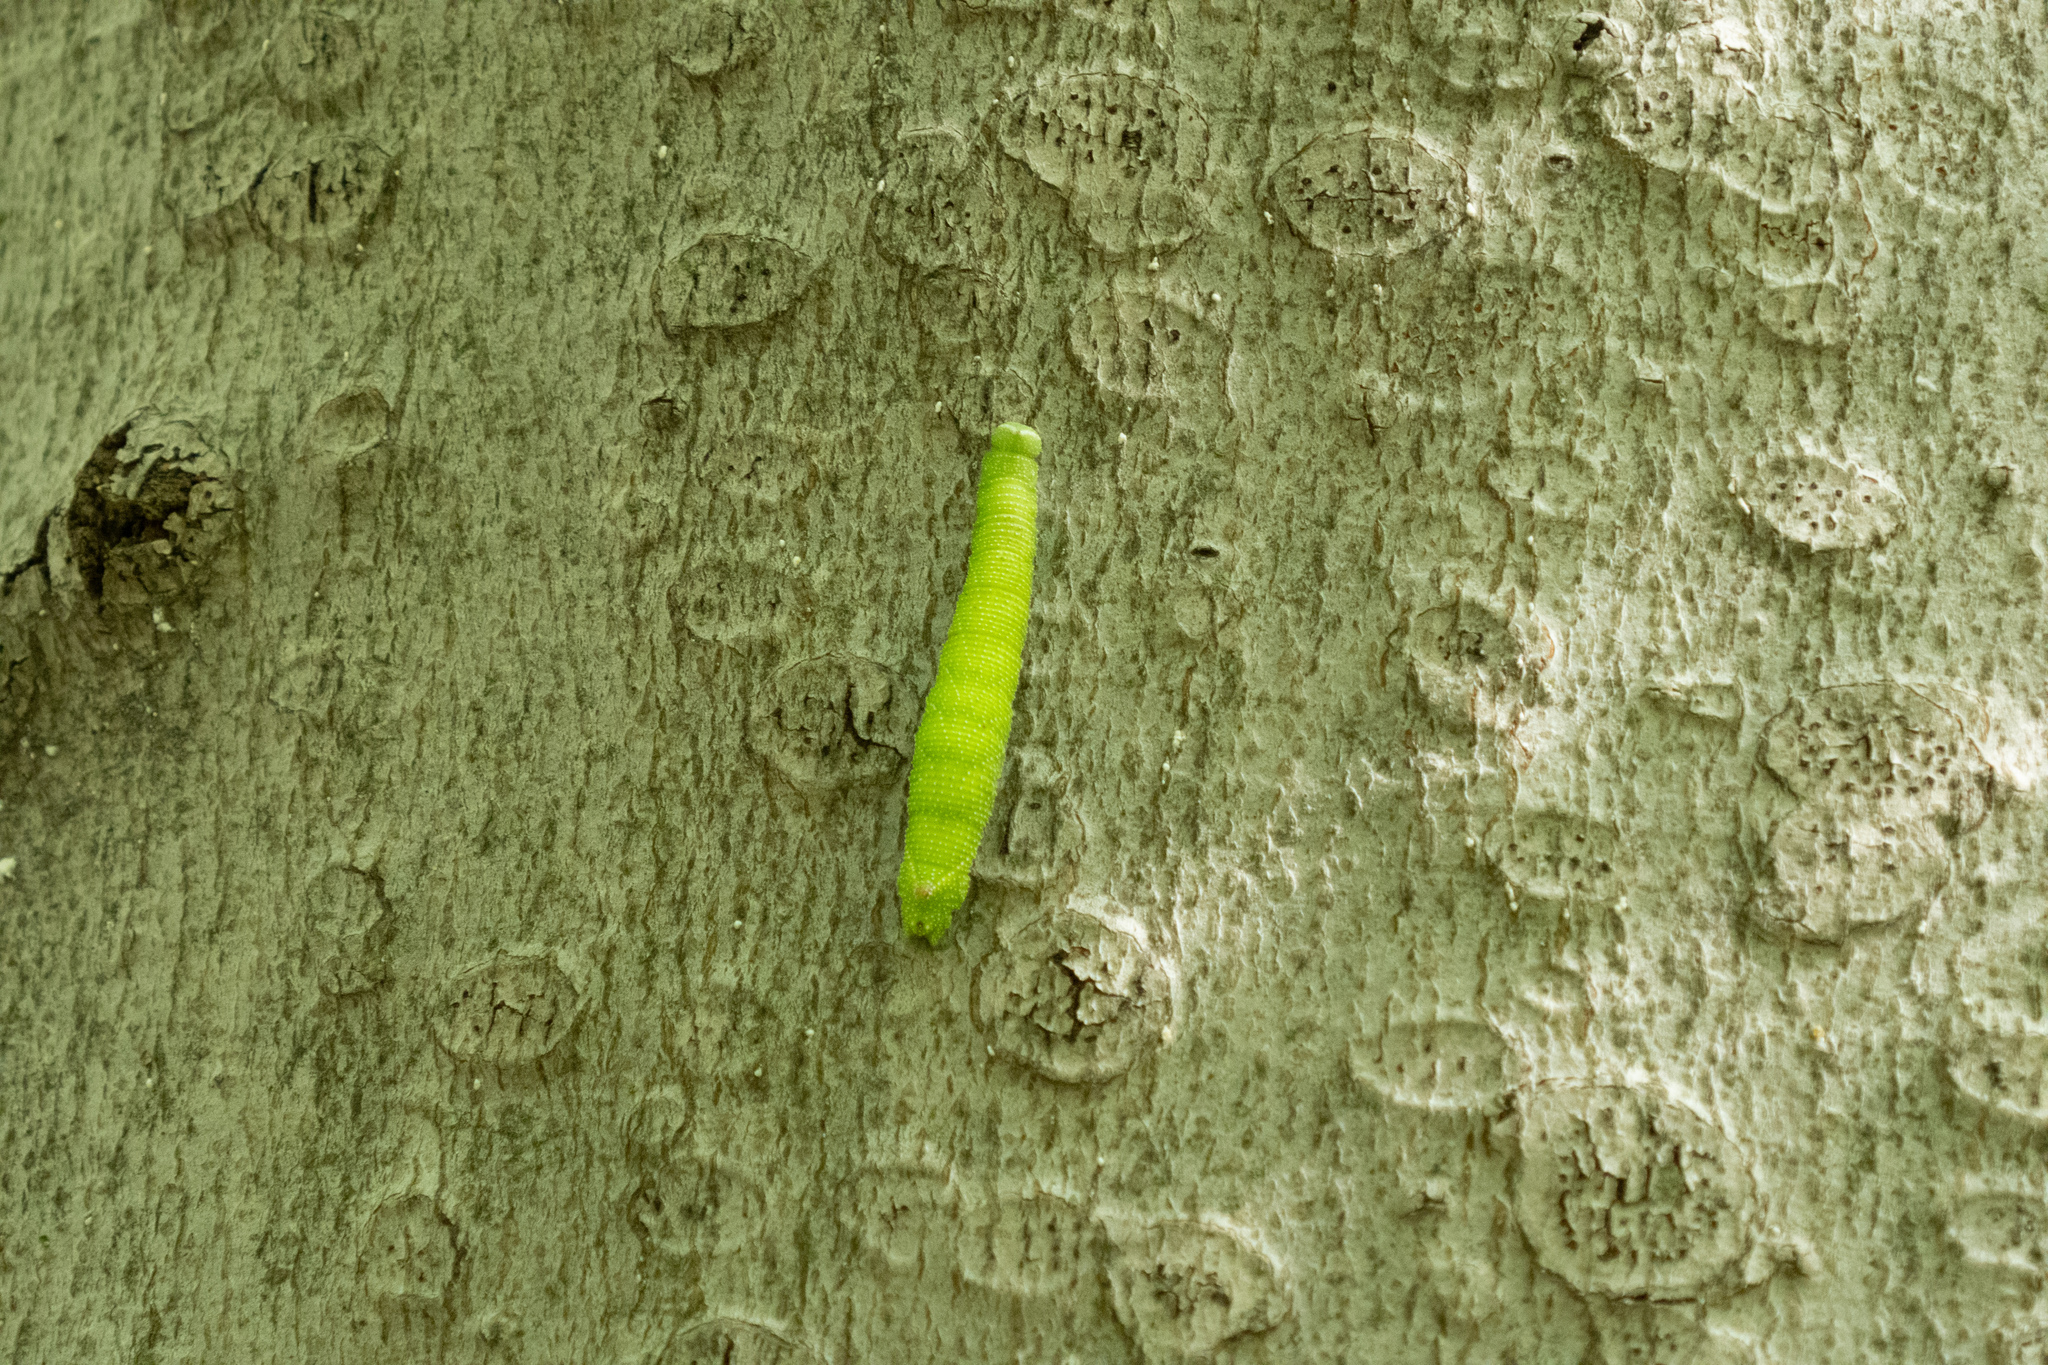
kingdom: Animalia
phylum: Arthropoda
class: Insecta
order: Lepidoptera
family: Sphingidae
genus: Amorpha
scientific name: Amorpha juglandis
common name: Walnut sphinx
